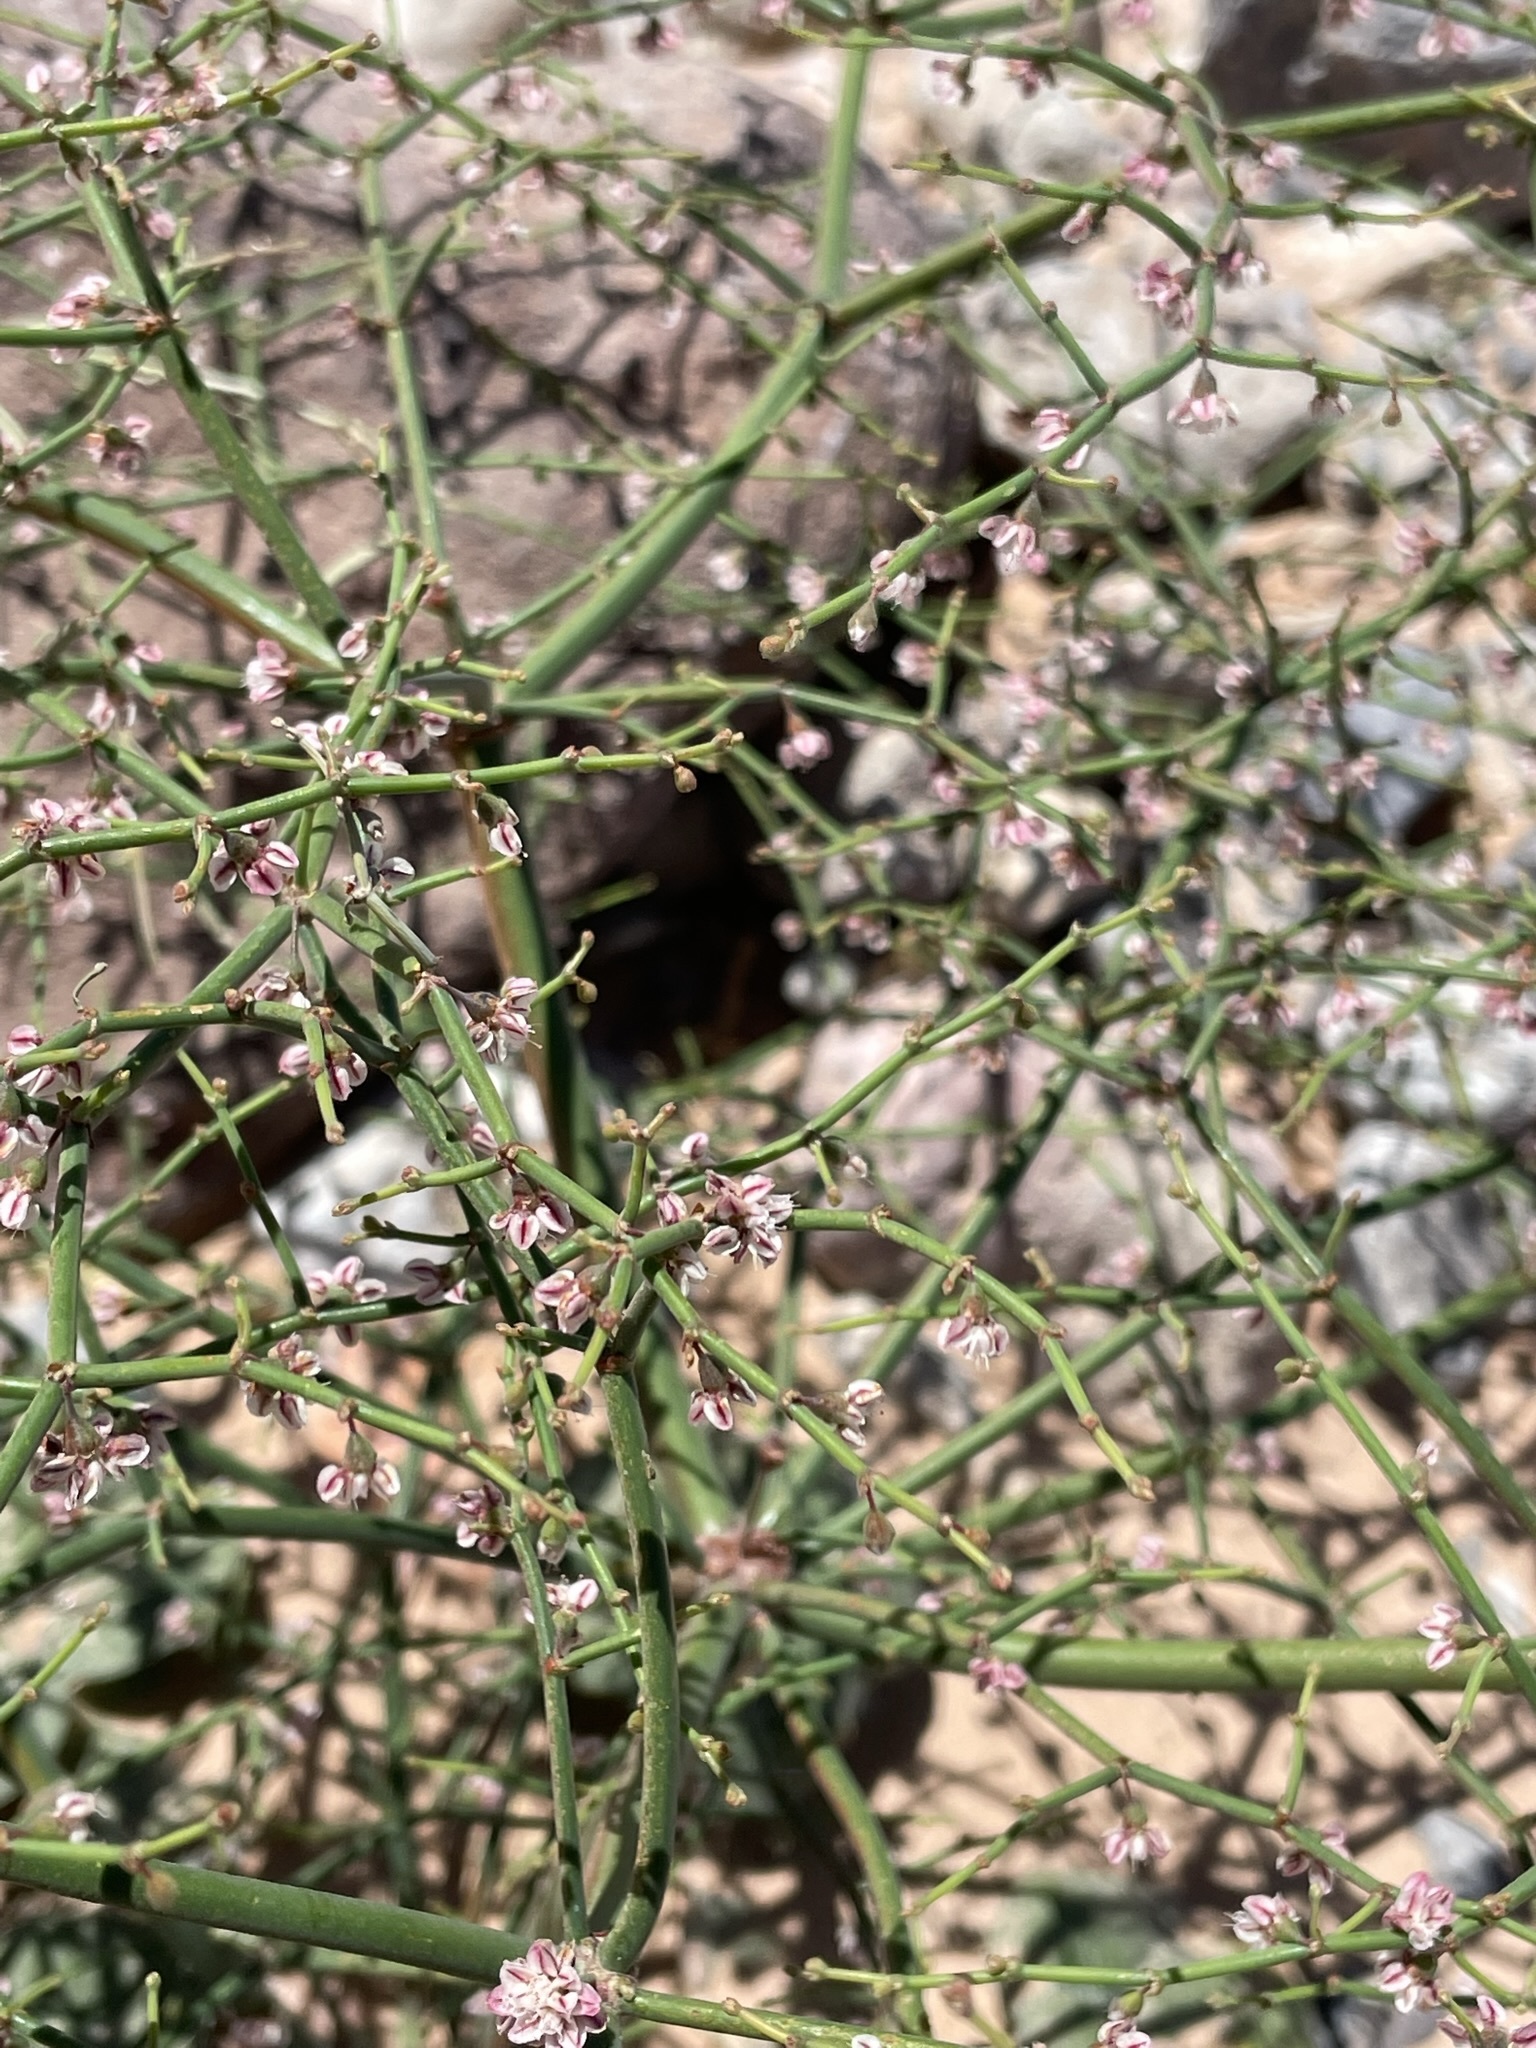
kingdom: Plantae
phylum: Tracheophyta
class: Magnoliopsida
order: Caryophyllales
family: Polygonaceae
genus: Eriogonum
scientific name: Eriogonum deflexum
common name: Skeleton-weed
